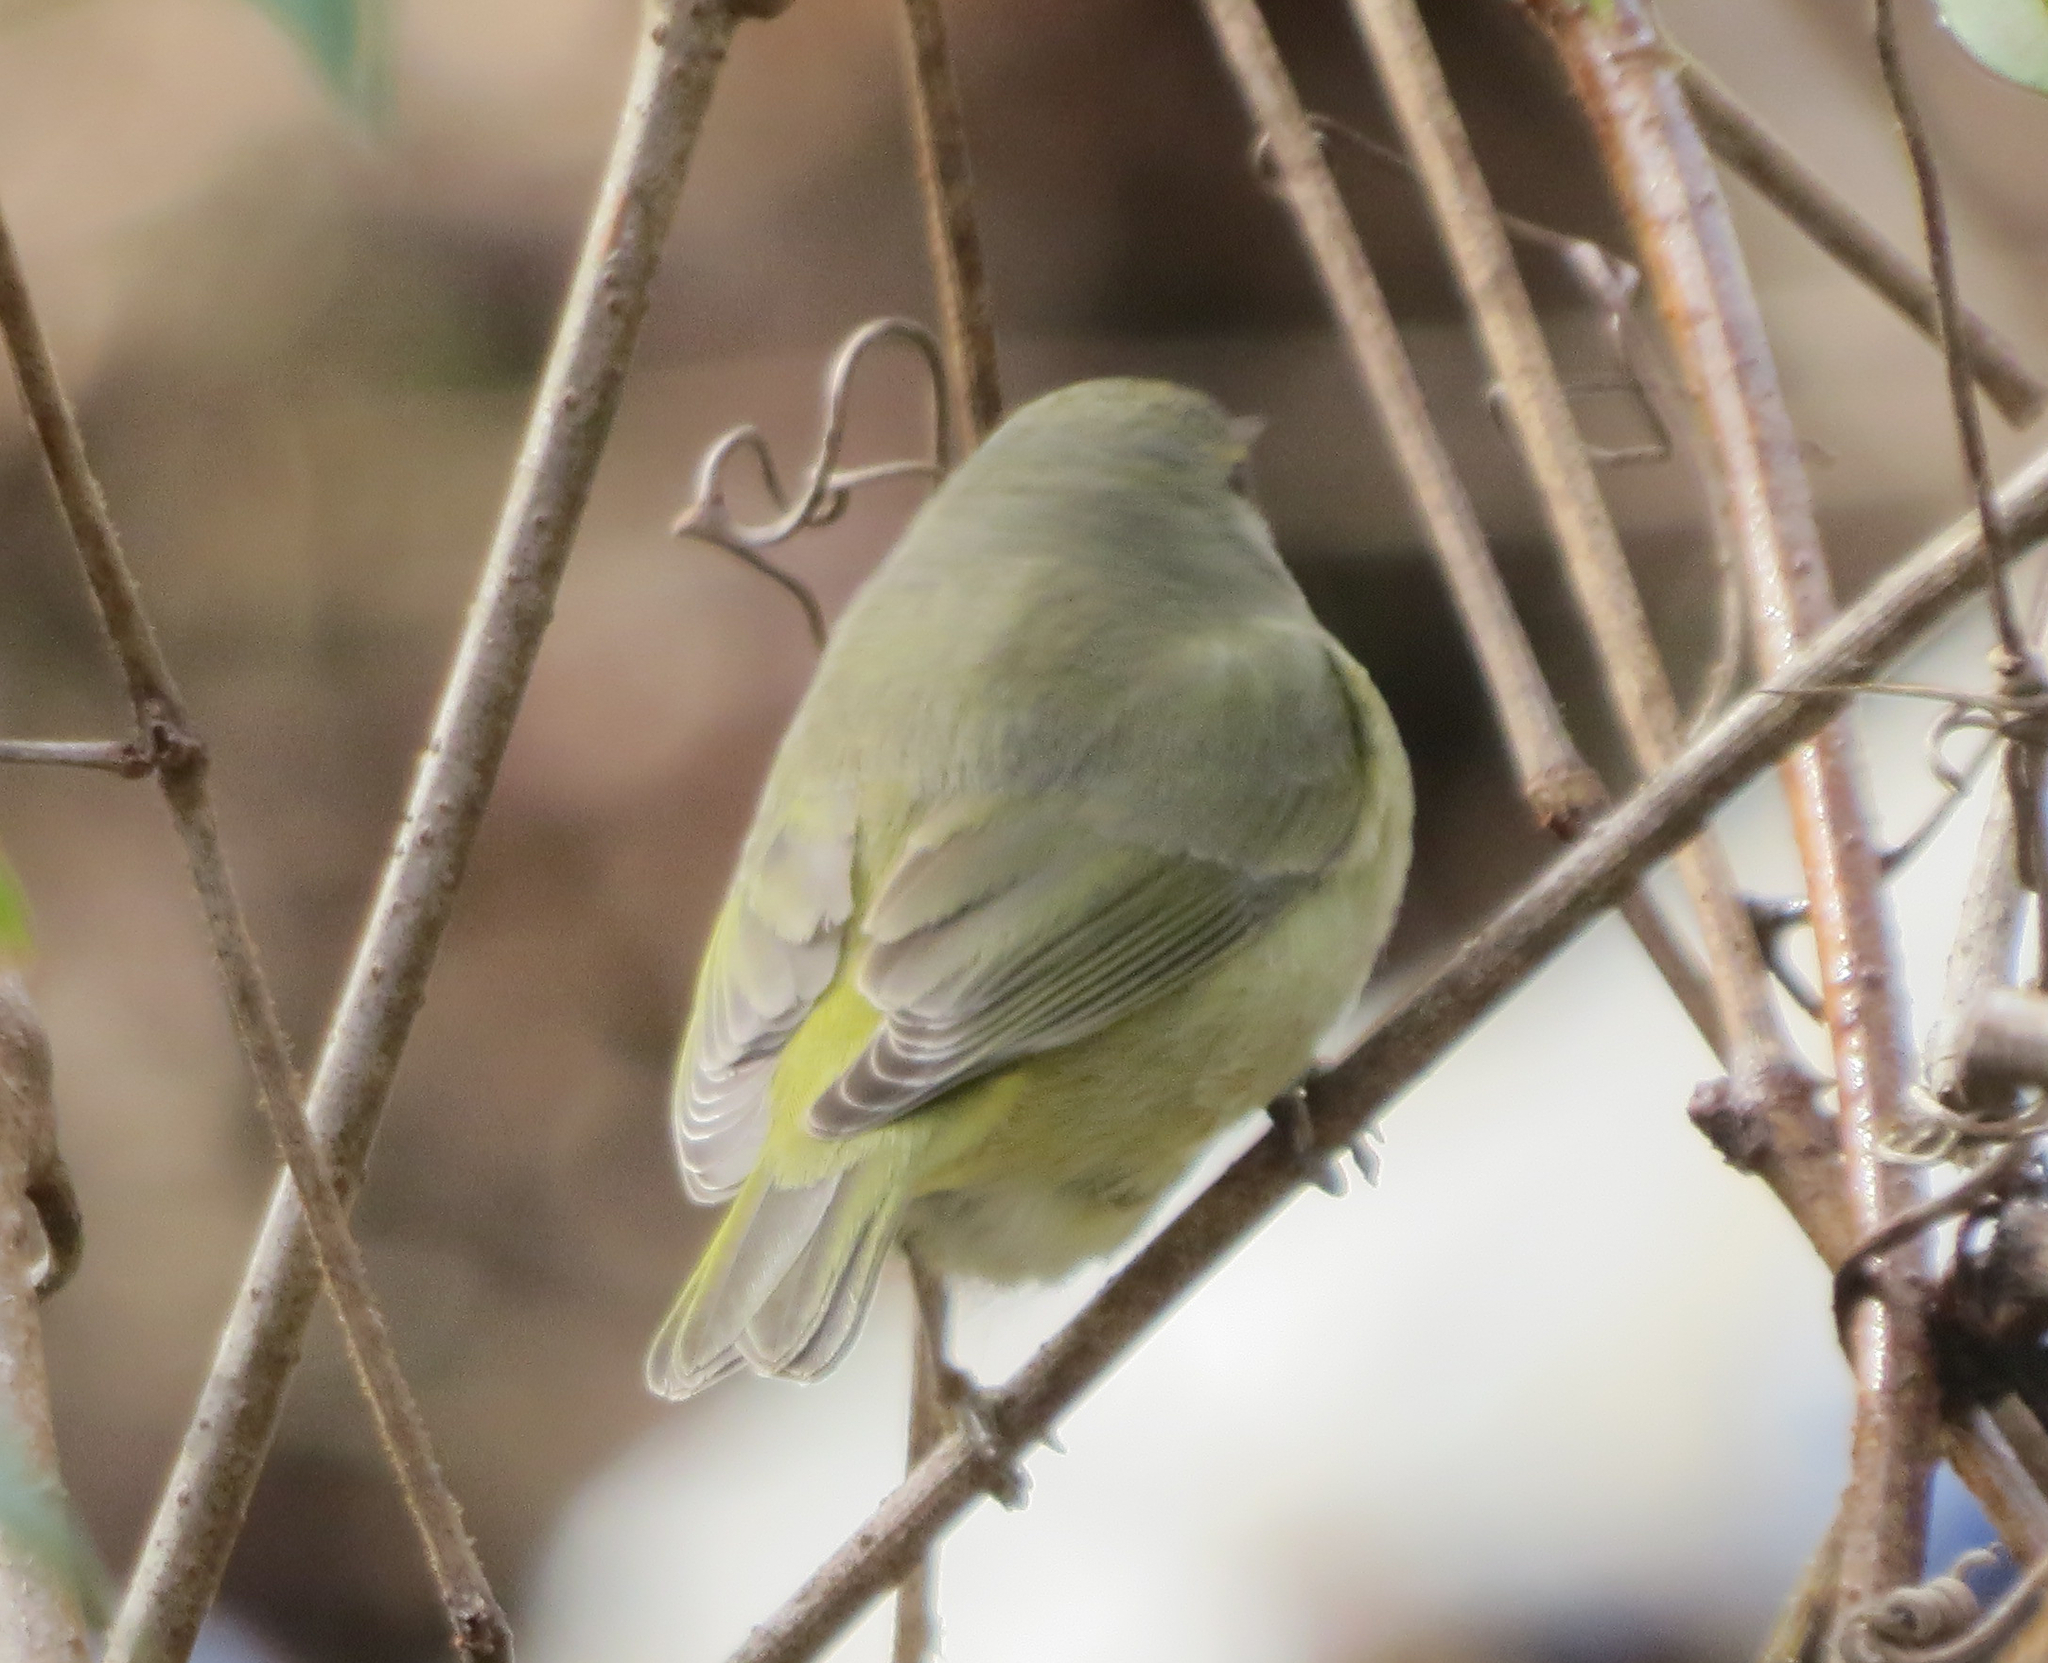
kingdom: Animalia
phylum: Chordata
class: Aves
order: Passeriformes
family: Parulidae
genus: Leiothlypis
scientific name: Leiothlypis celata
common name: Orange-crowned warbler
